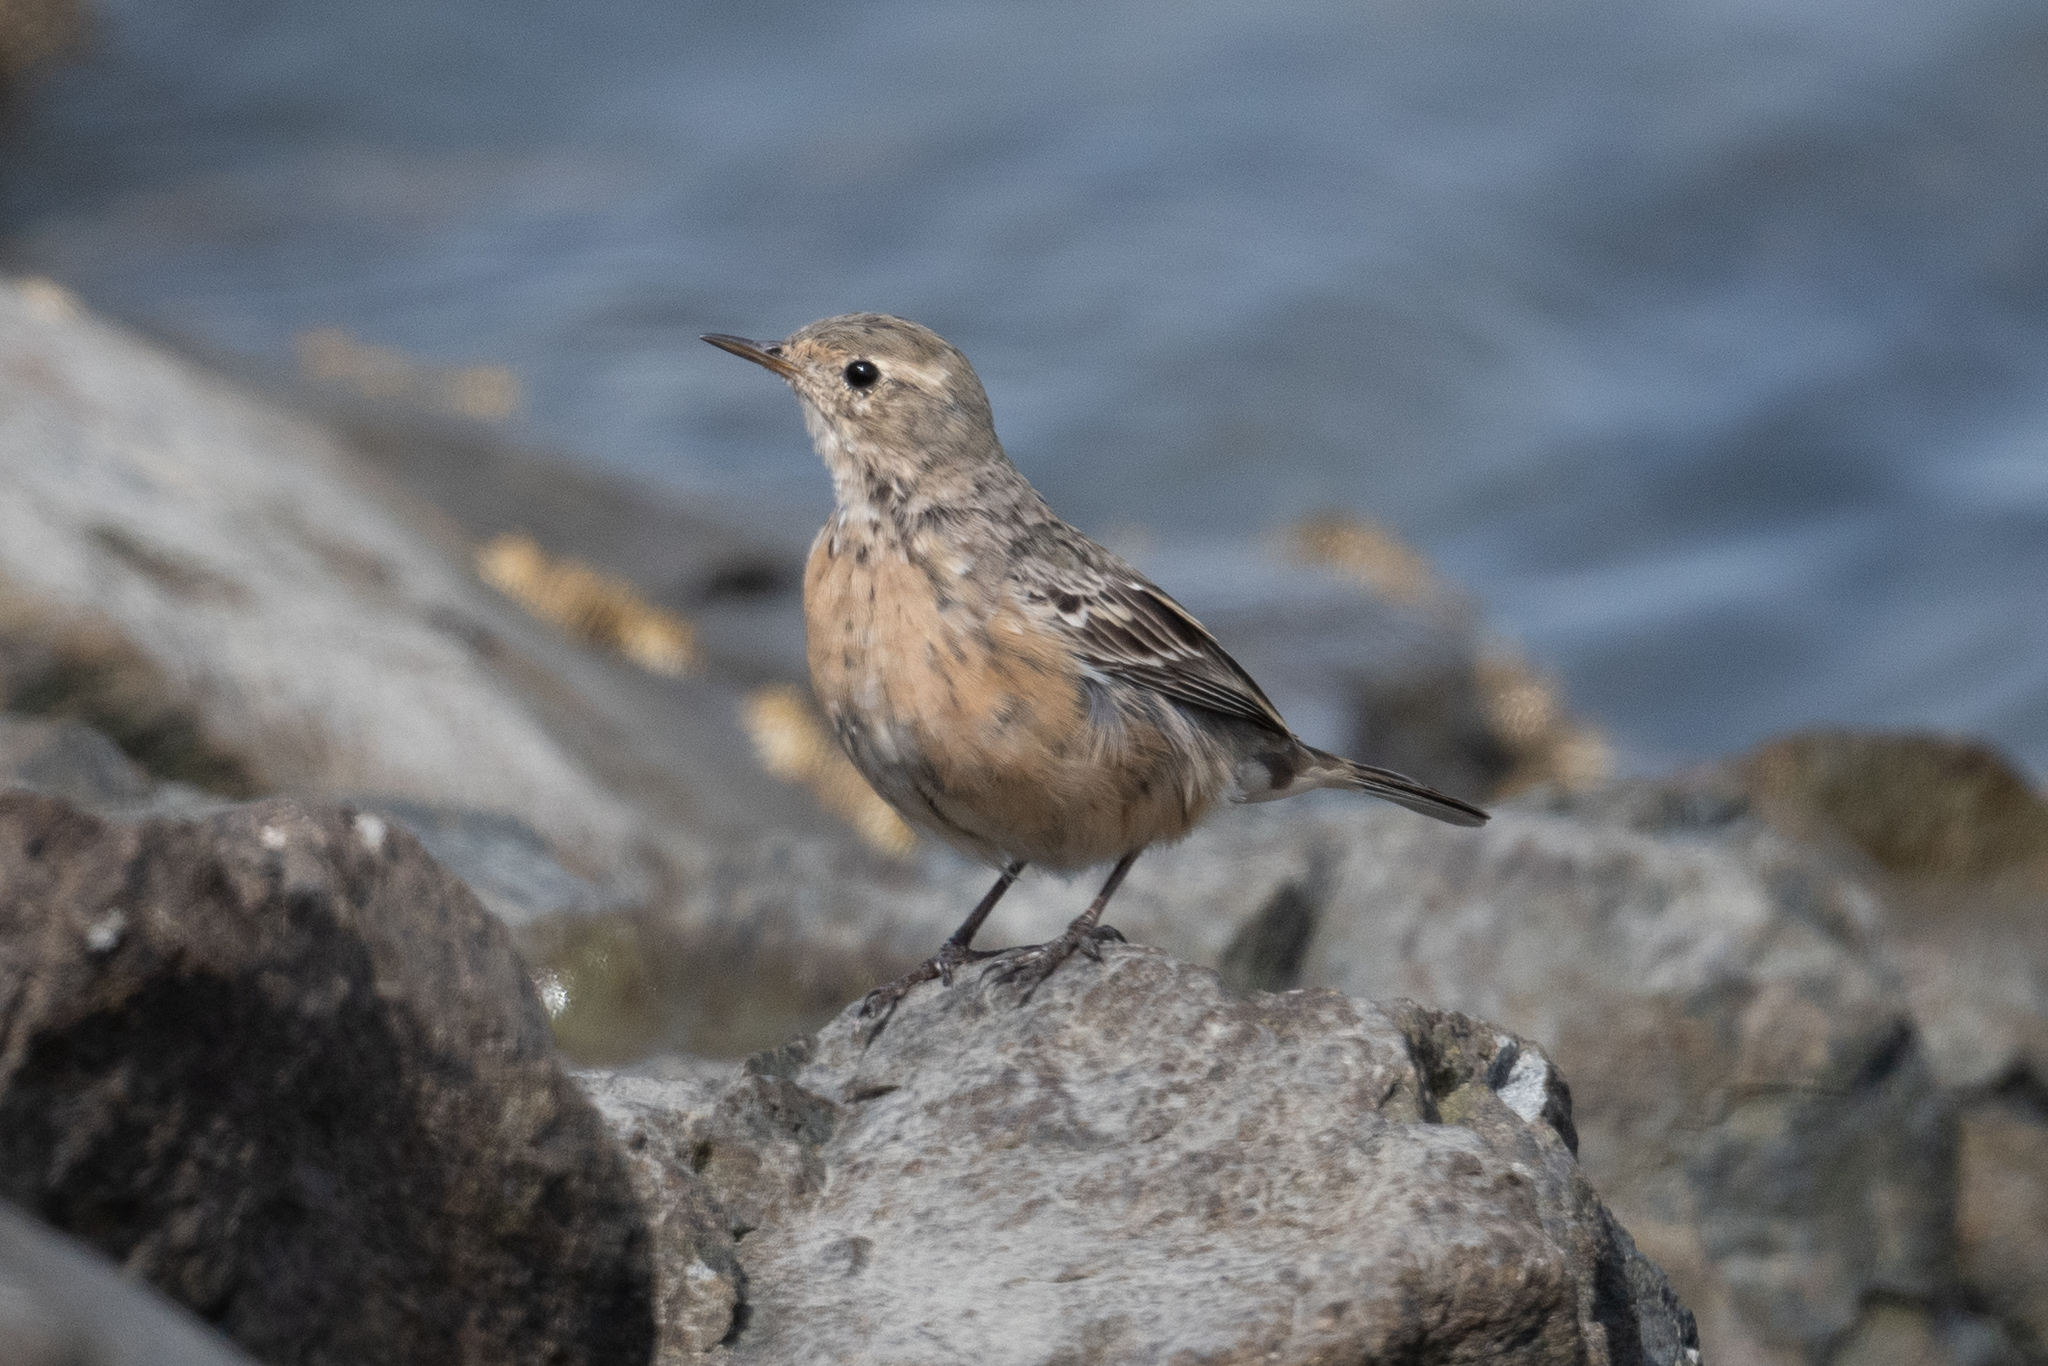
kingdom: Animalia
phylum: Chordata
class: Aves
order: Passeriformes
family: Motacillidae
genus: Anthus
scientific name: Anthus rubescens
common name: Buff-bellied pipit
